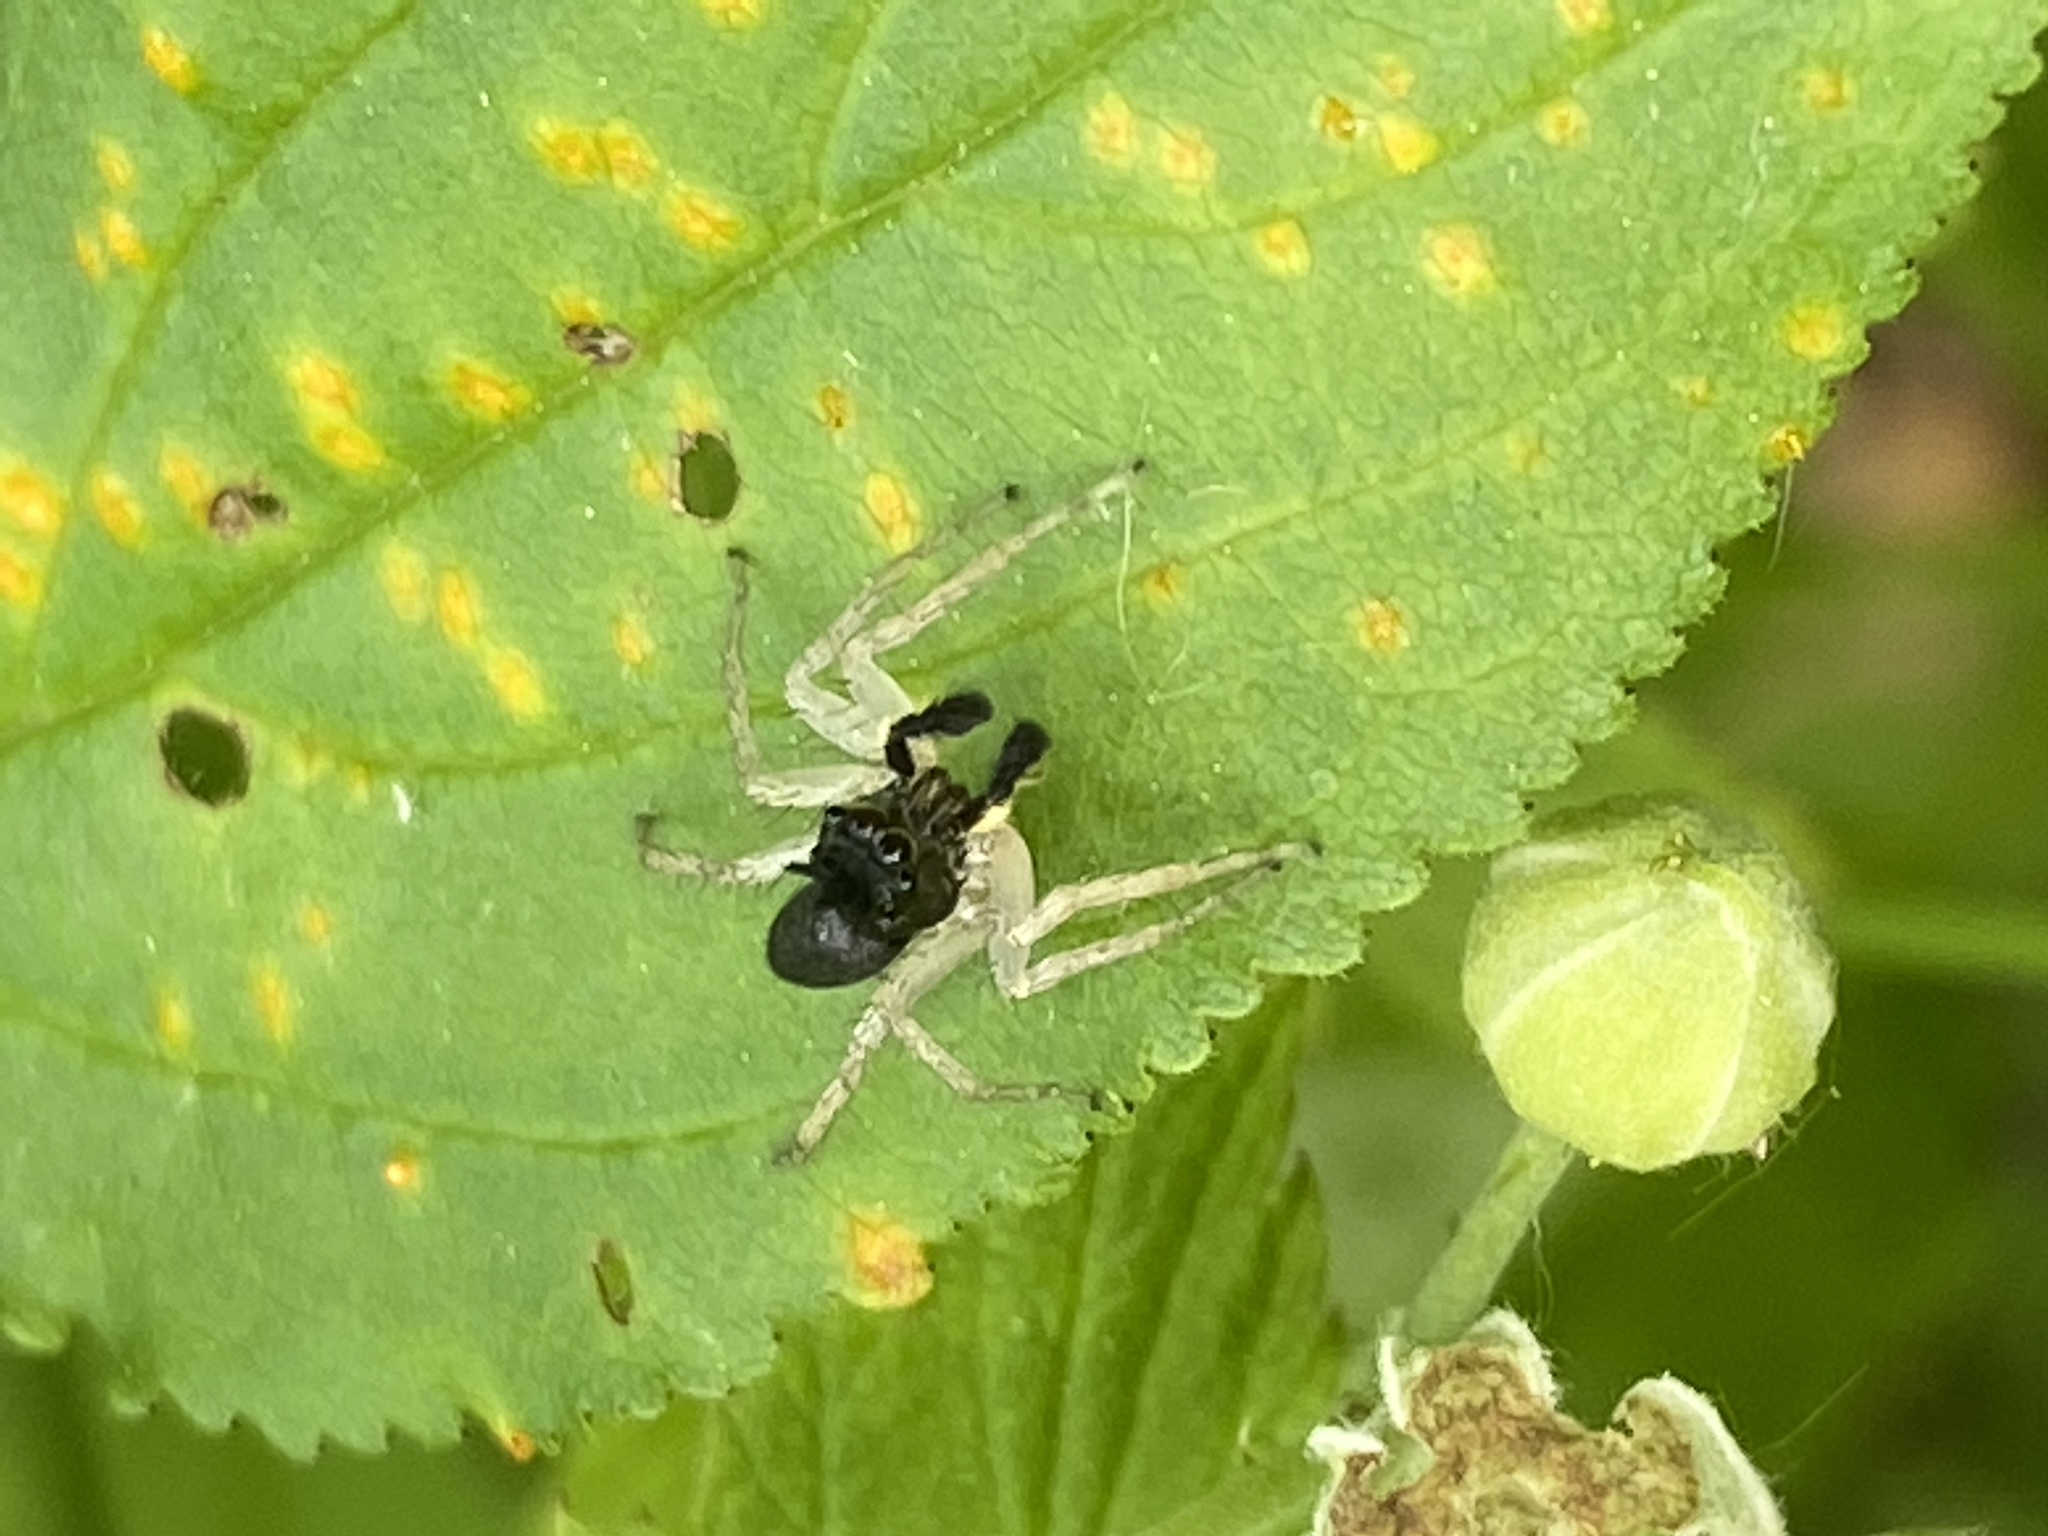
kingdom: Animalia
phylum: Arthropoda
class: Arachnida
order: Araneae
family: Salticidae
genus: Maevia
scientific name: Maevia inclemens
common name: Dimorphic jumper
